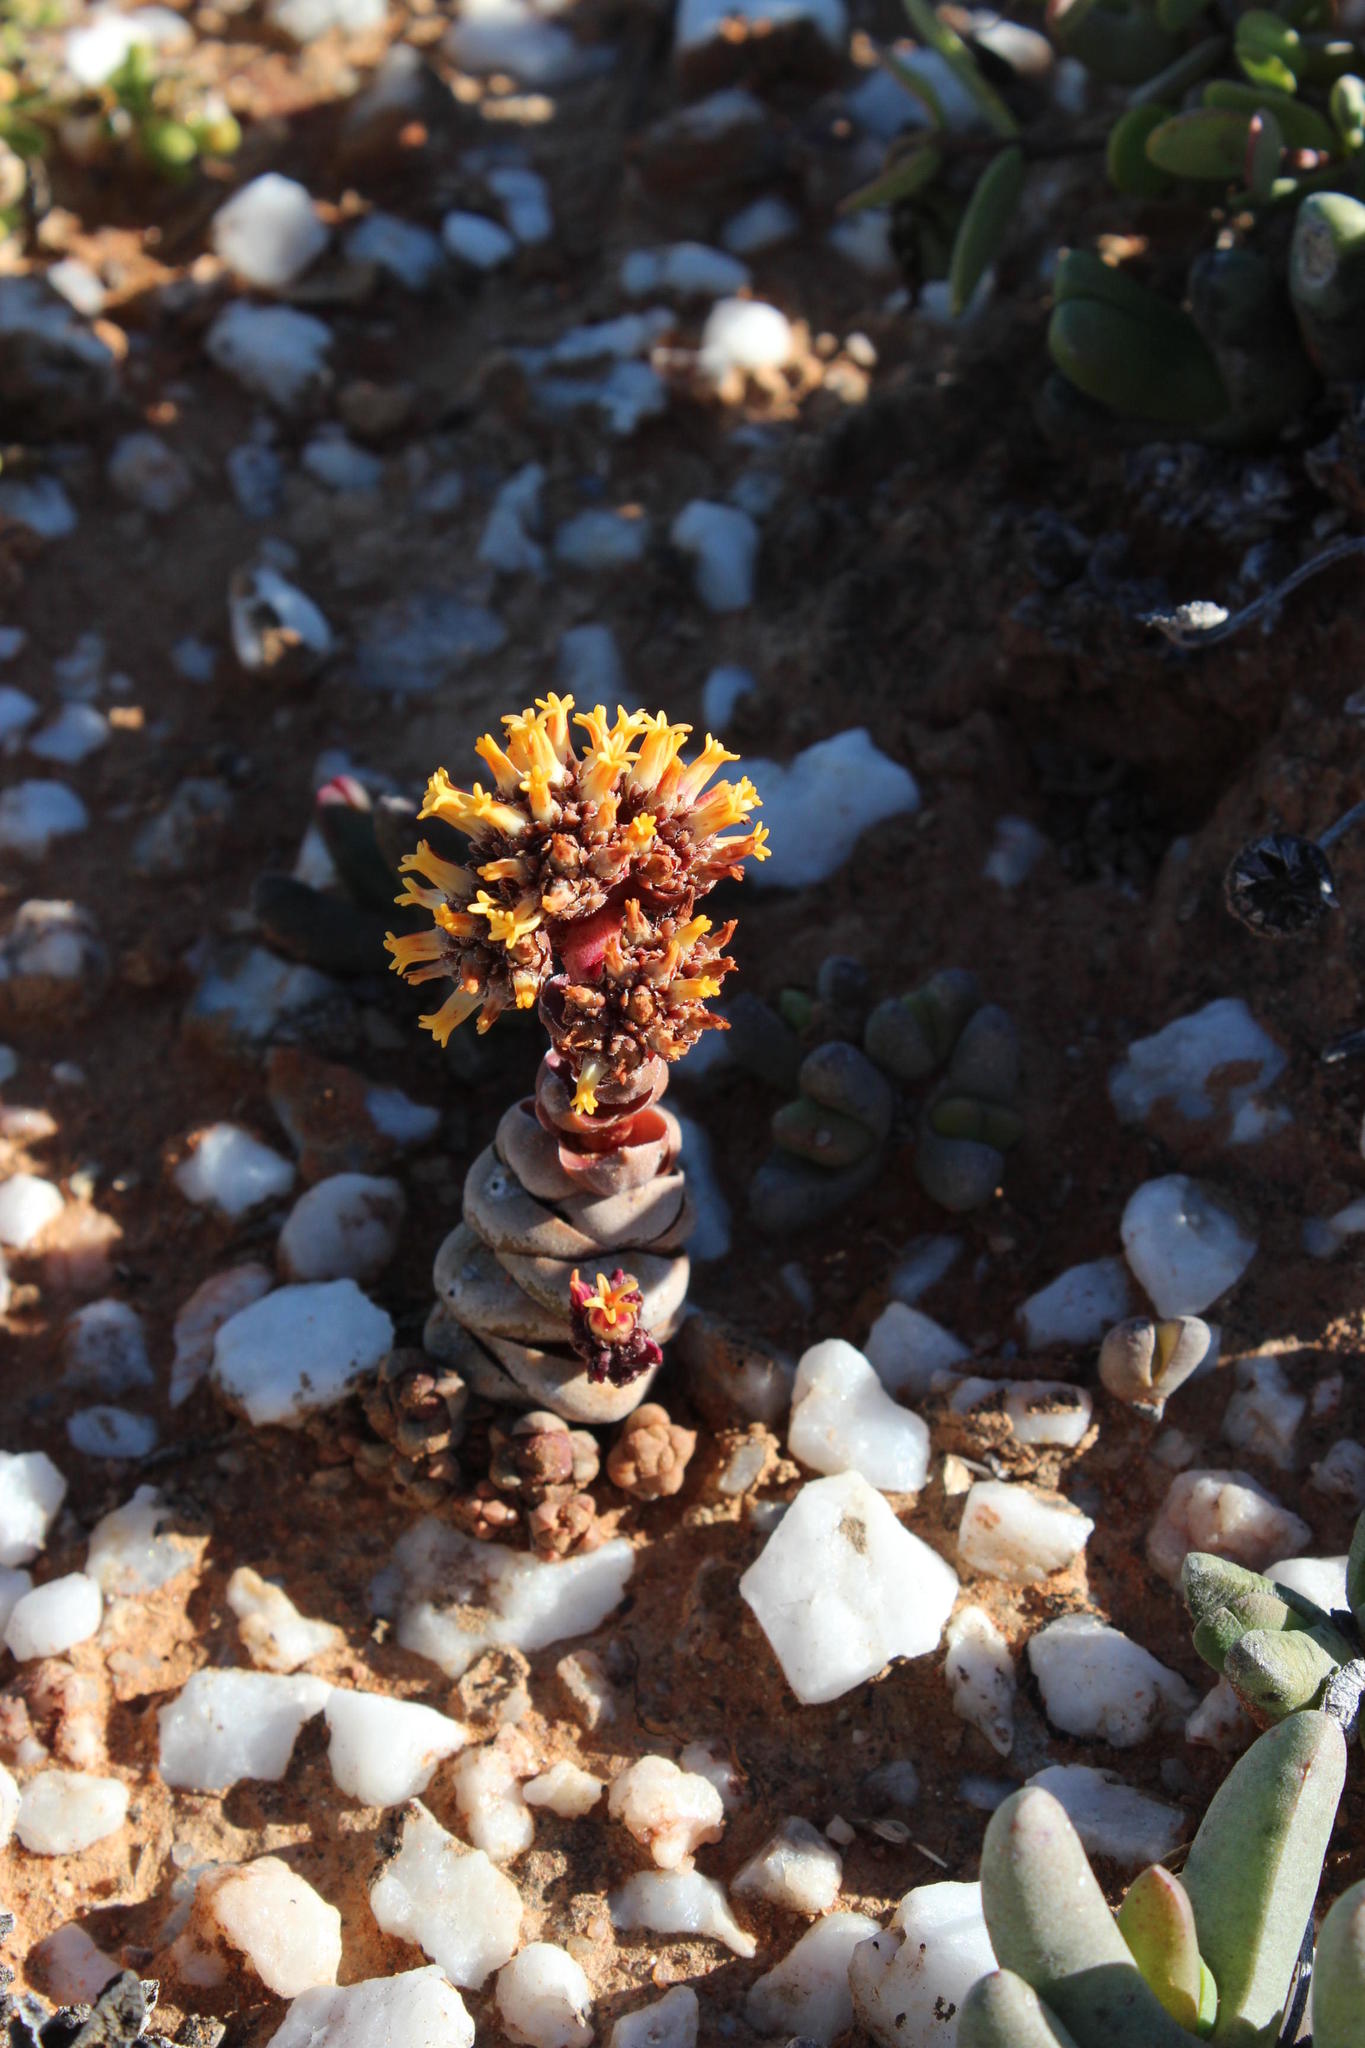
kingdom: Plantae
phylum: Tracheophyta
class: Magnoliopsida
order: Saxifragales
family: Crassulaceae
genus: Crassula
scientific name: Crassula columnaris
